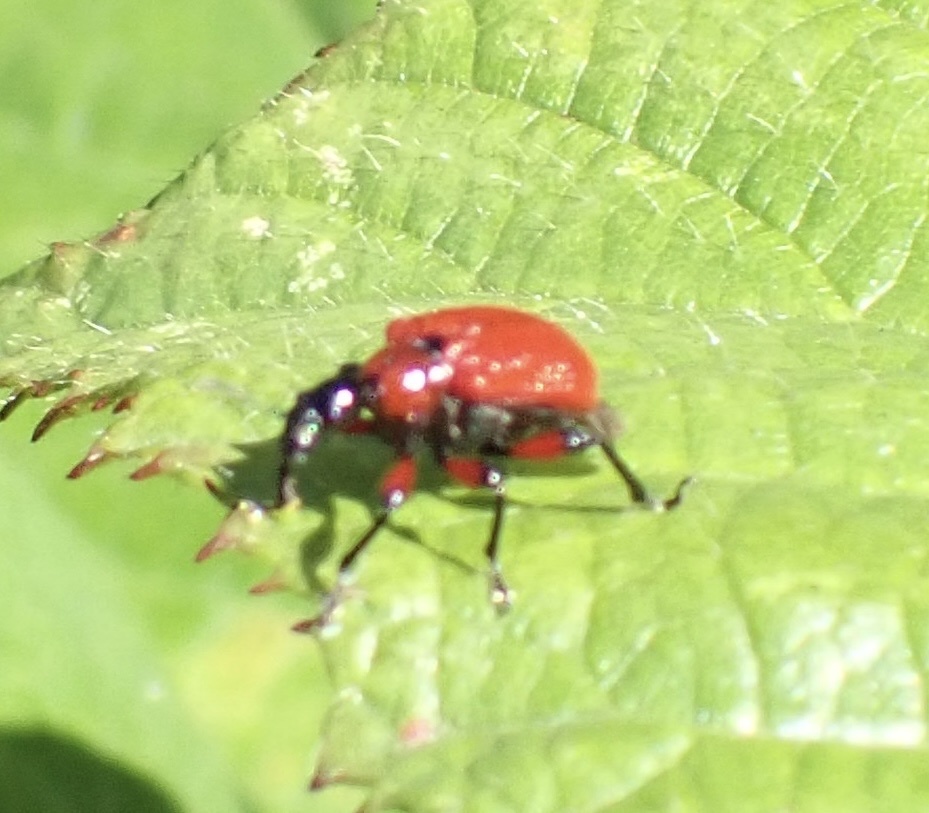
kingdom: Animalia
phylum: Arthropoda
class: Insecta
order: Coleoptera
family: Attelabidae
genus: Apoderus
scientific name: Apoderus coryli
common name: Hazel leaf roller
